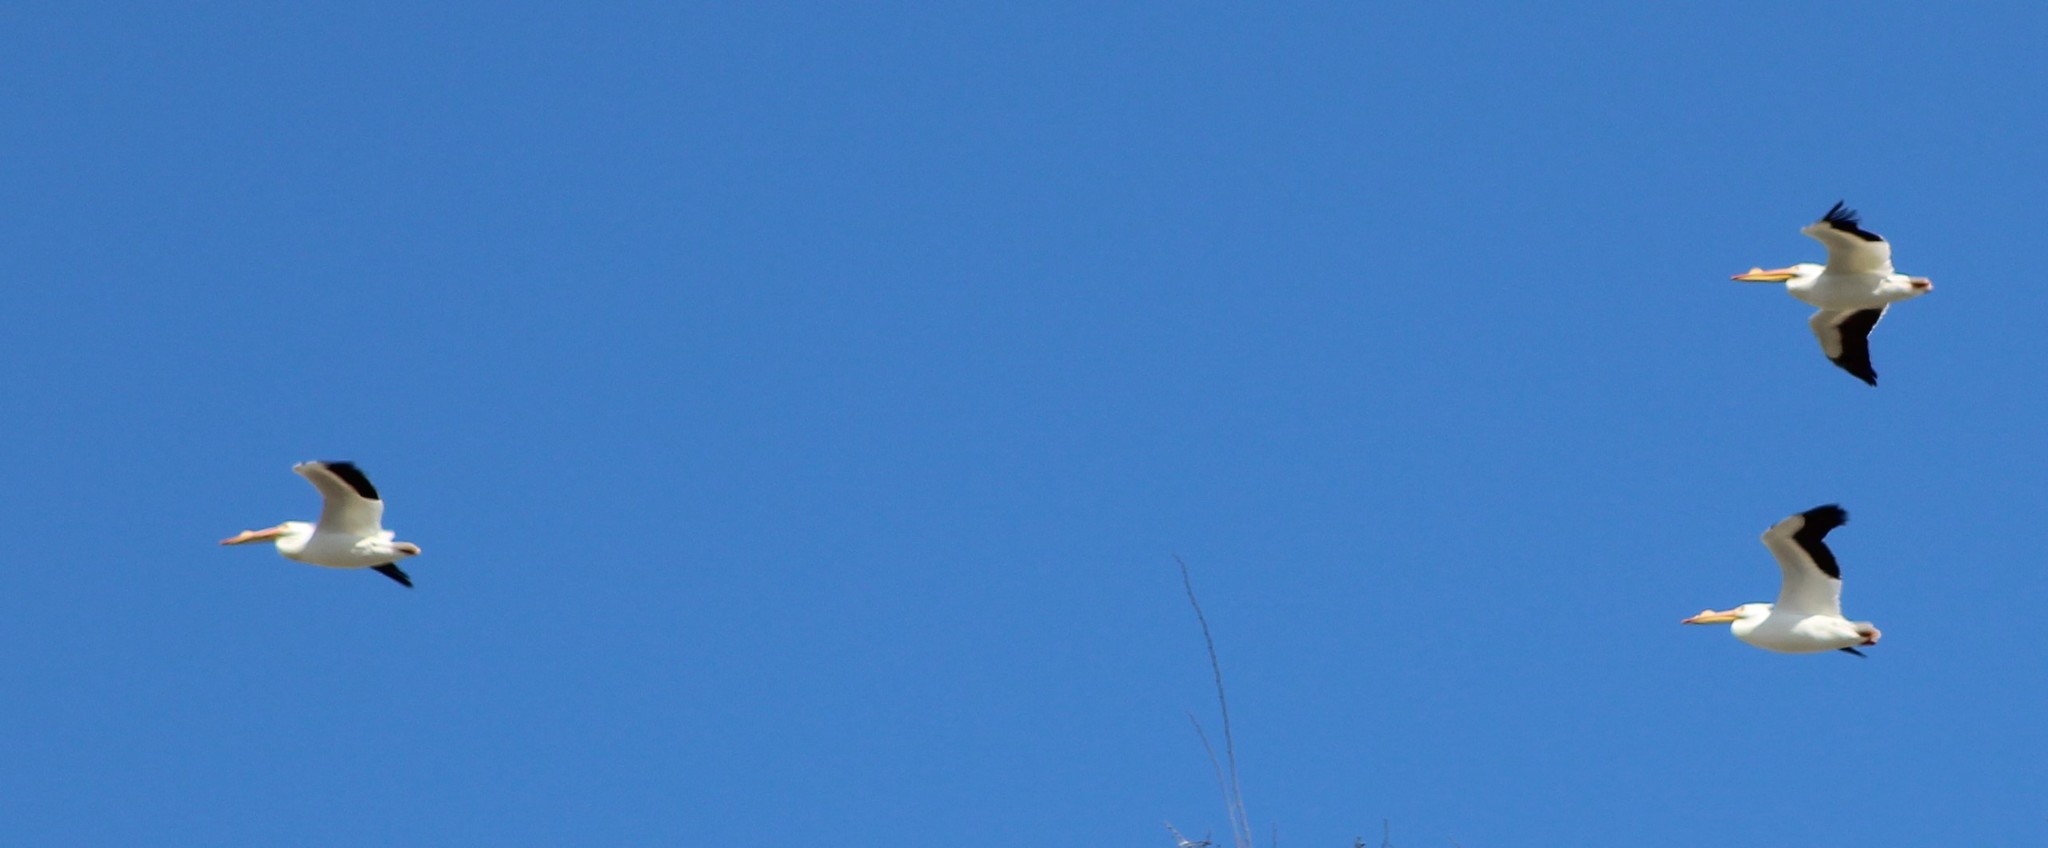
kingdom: Animalia
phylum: Chordata
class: Aves
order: Pelecaniformes
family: Pelecanidae
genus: Pelecanus
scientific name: Pelecanus erythrorhynchos
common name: American white pelican
